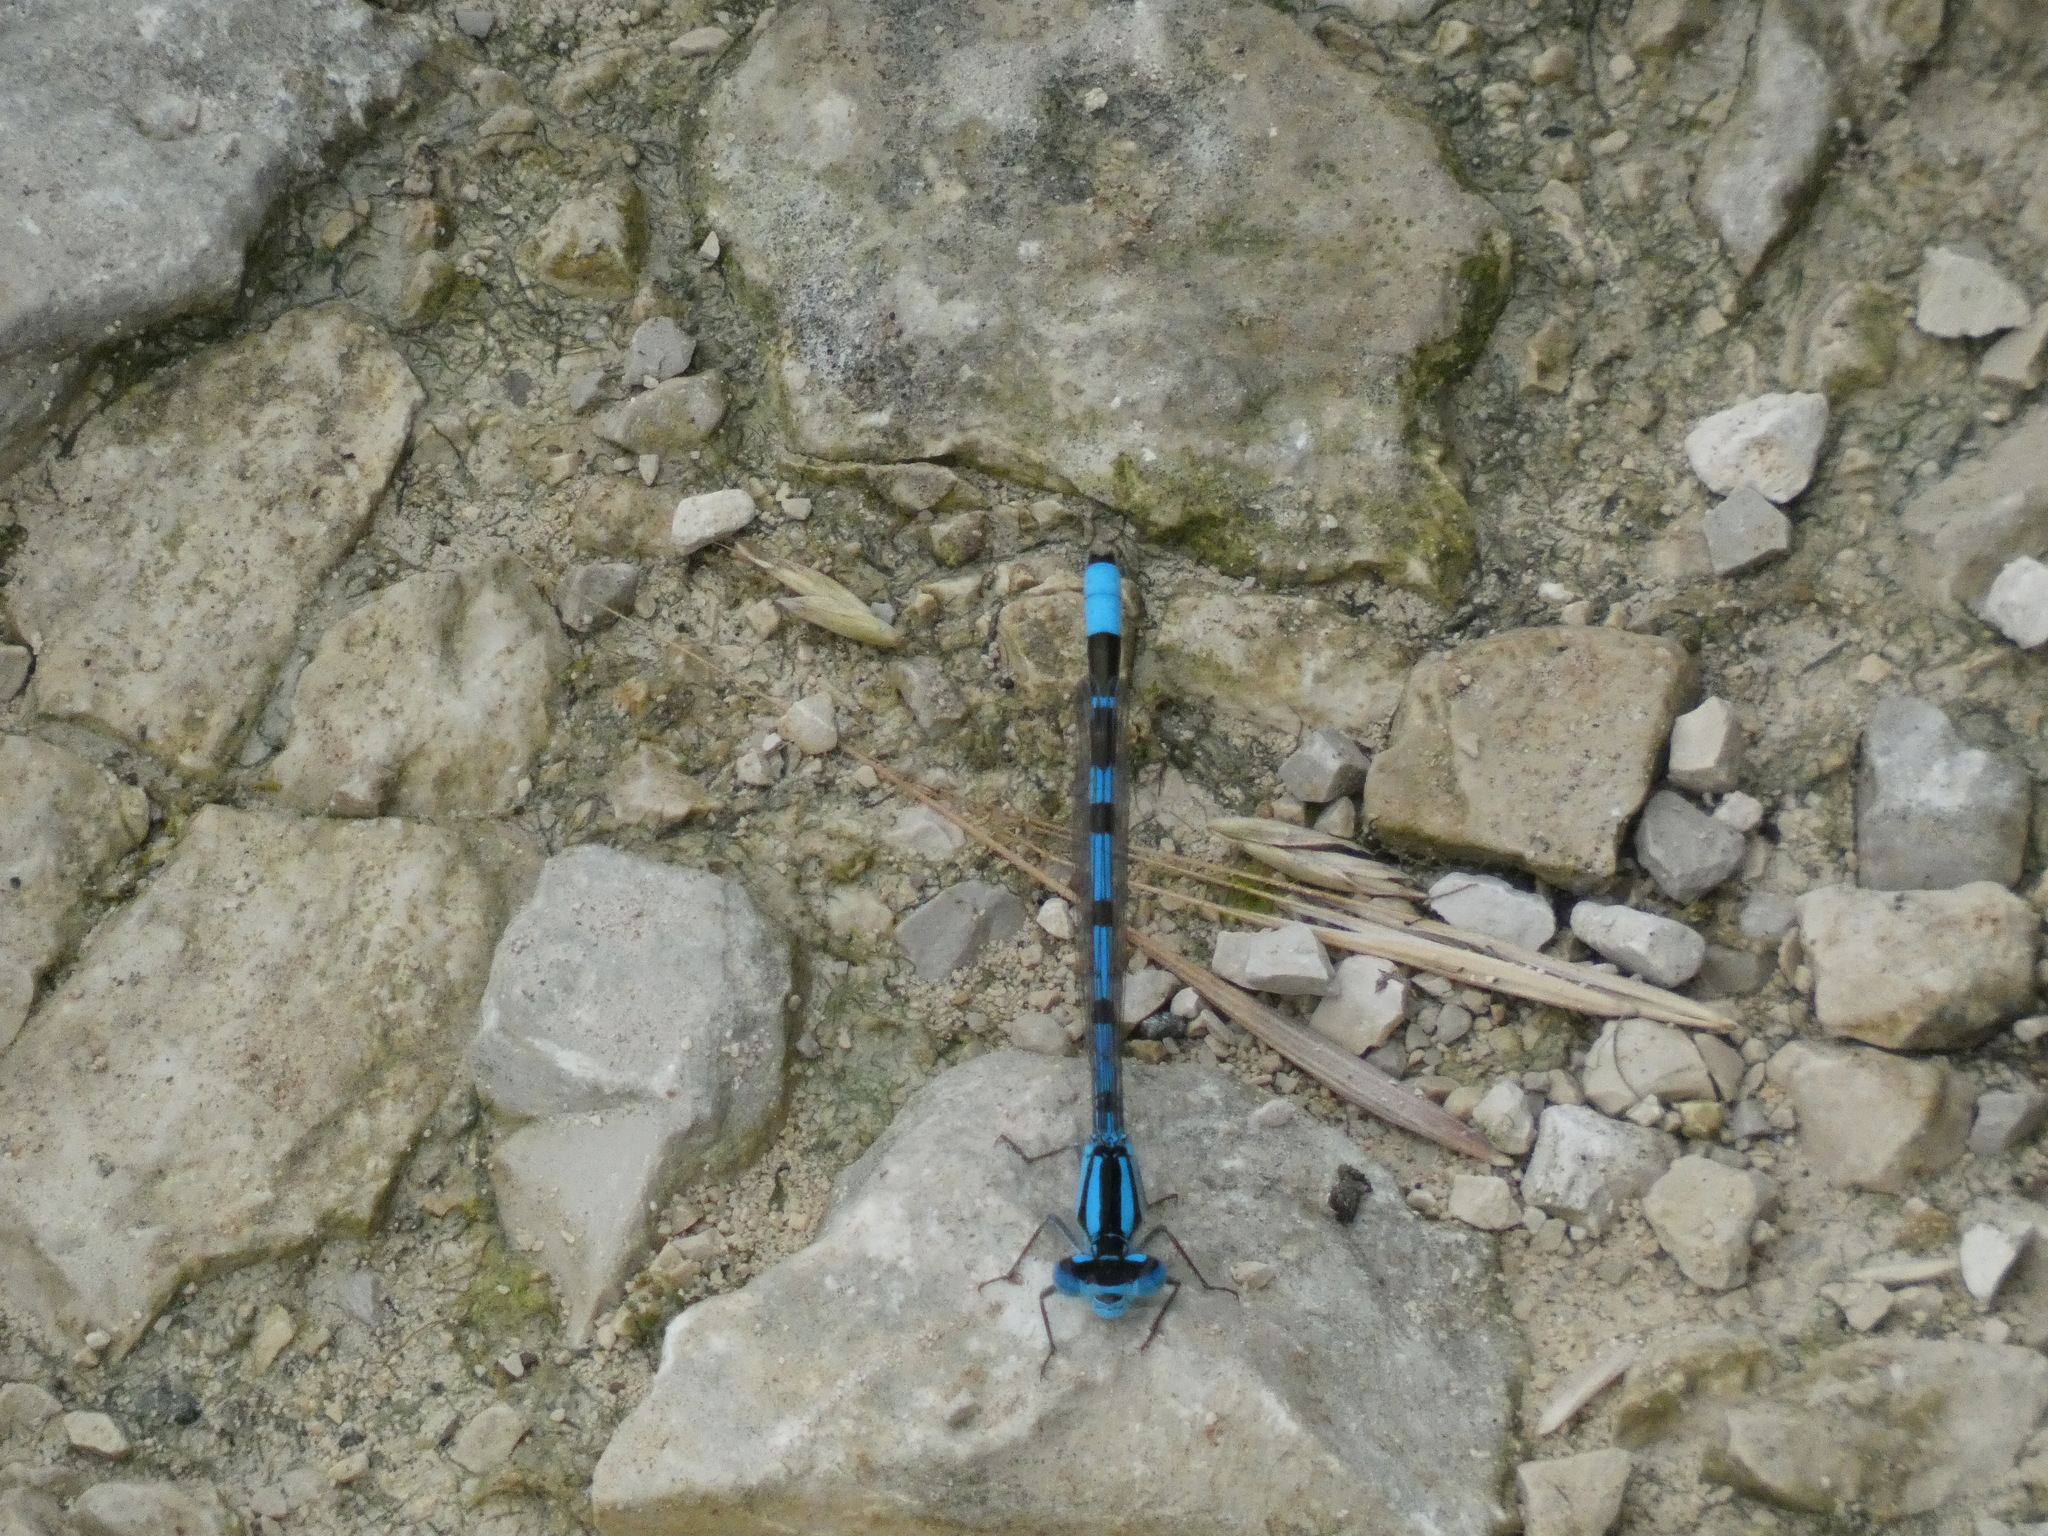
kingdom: Animalia
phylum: Arthropoda
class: Insecta
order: Odonata
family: Coenagrionidae
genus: Enallagma
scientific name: Enallagma cyathigerum
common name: Common blue damselfly
